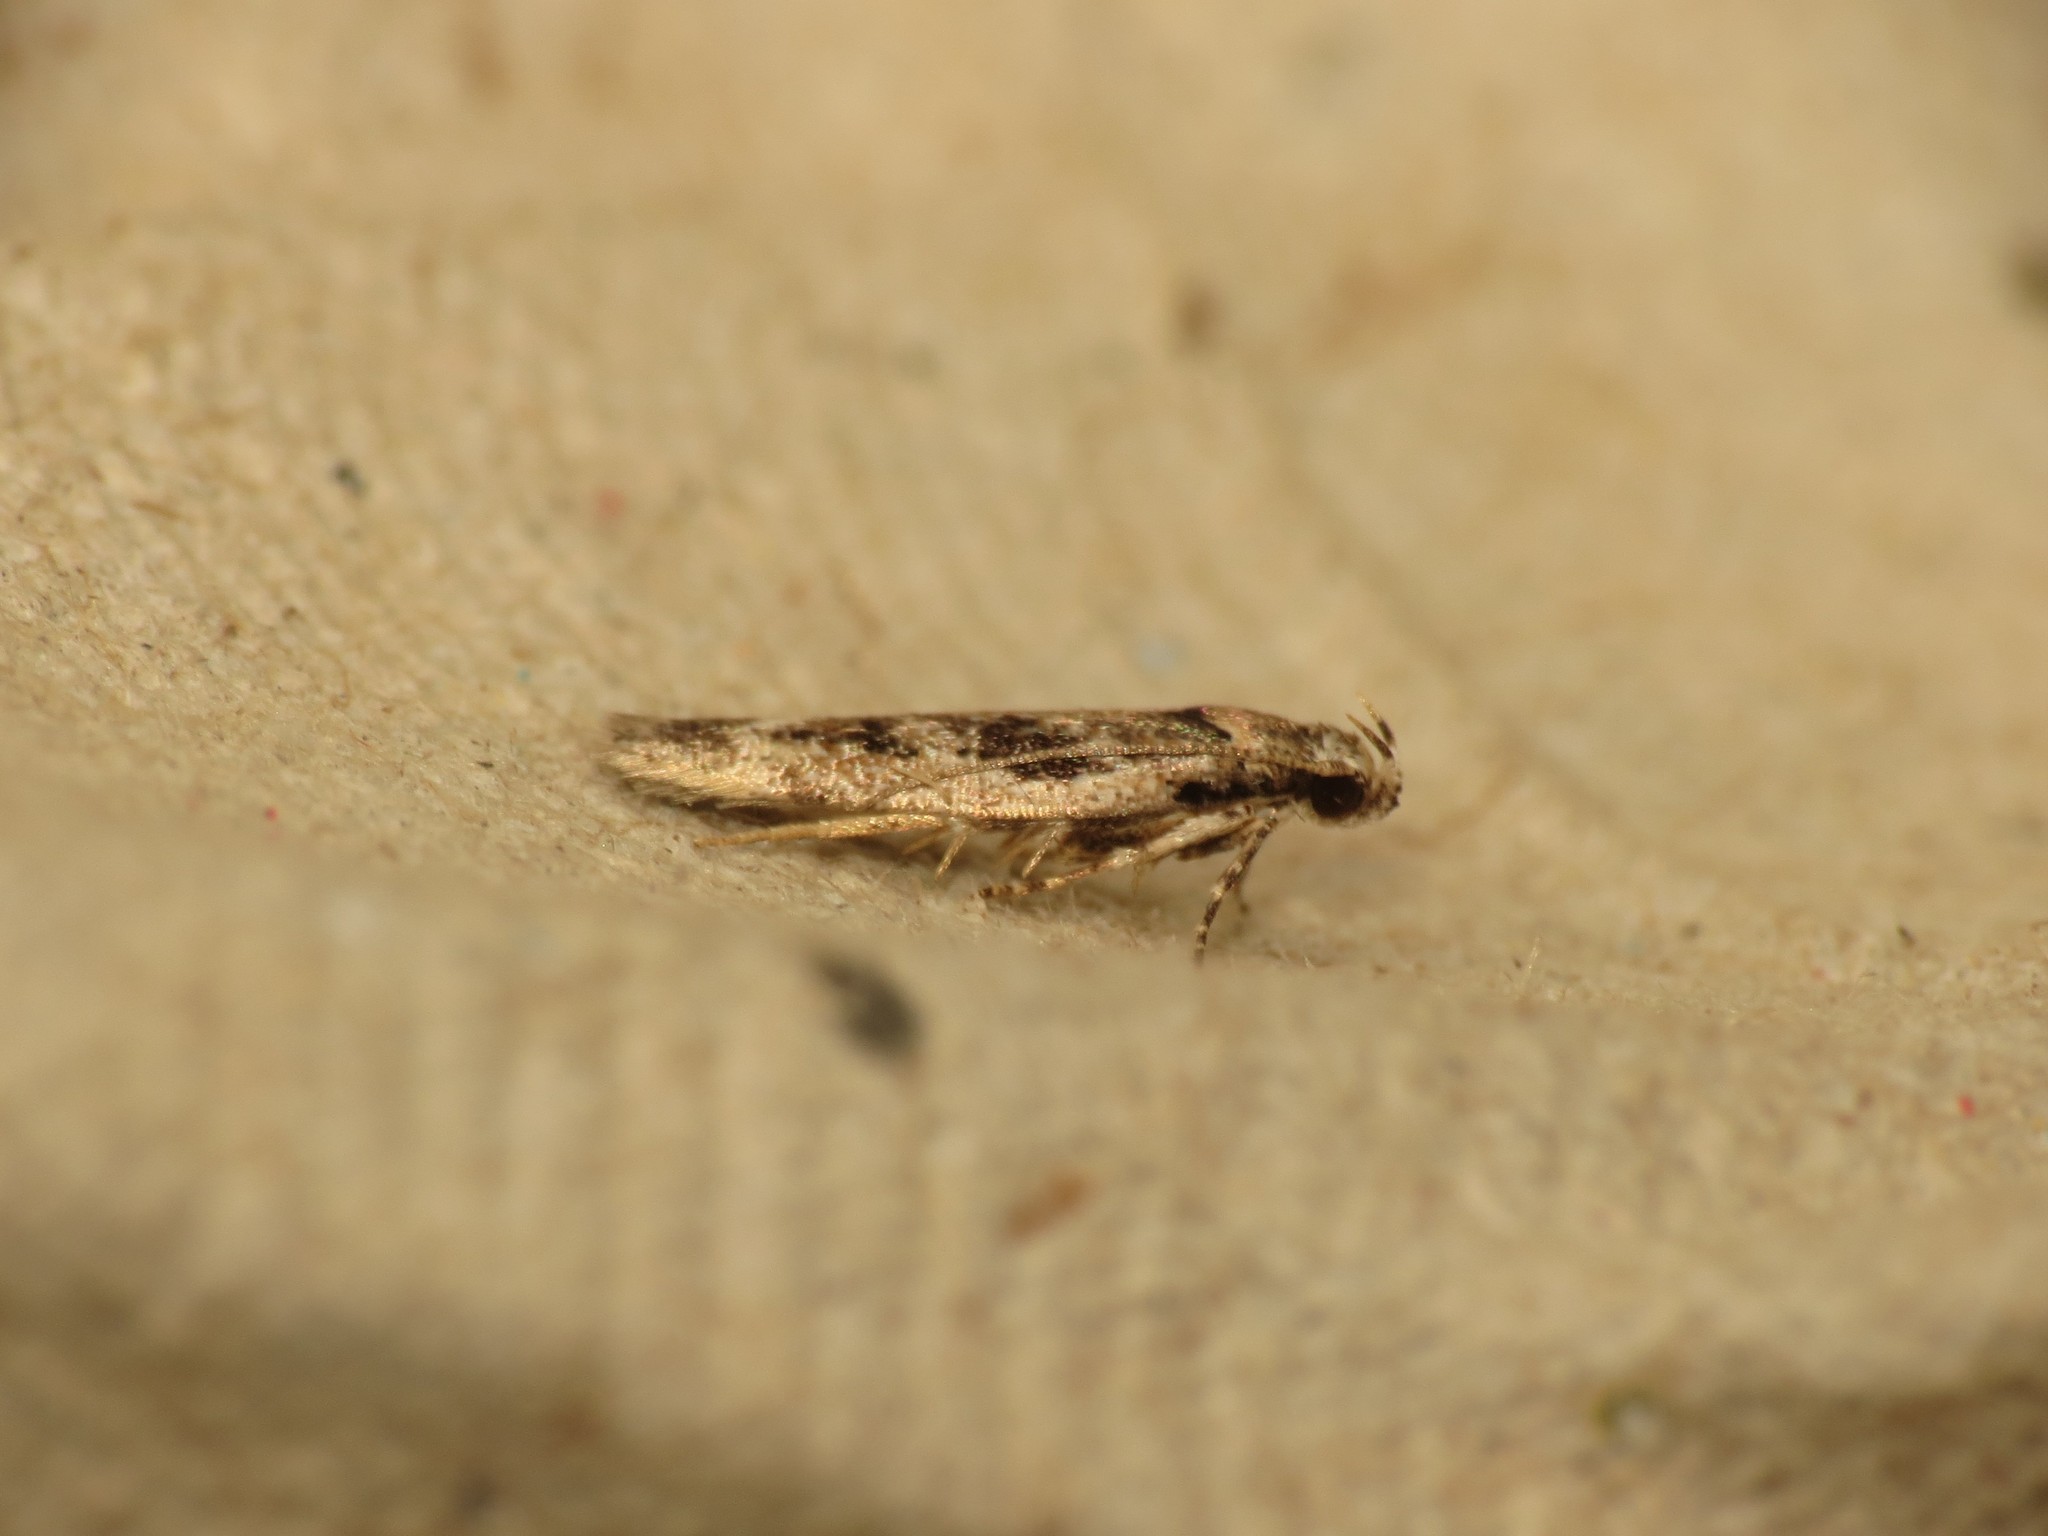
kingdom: Animalia
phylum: Arthropoda
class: Insecta
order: Lepidoptera
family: Gelechiidae
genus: Caryocolum
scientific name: Caryocolum fischerella
